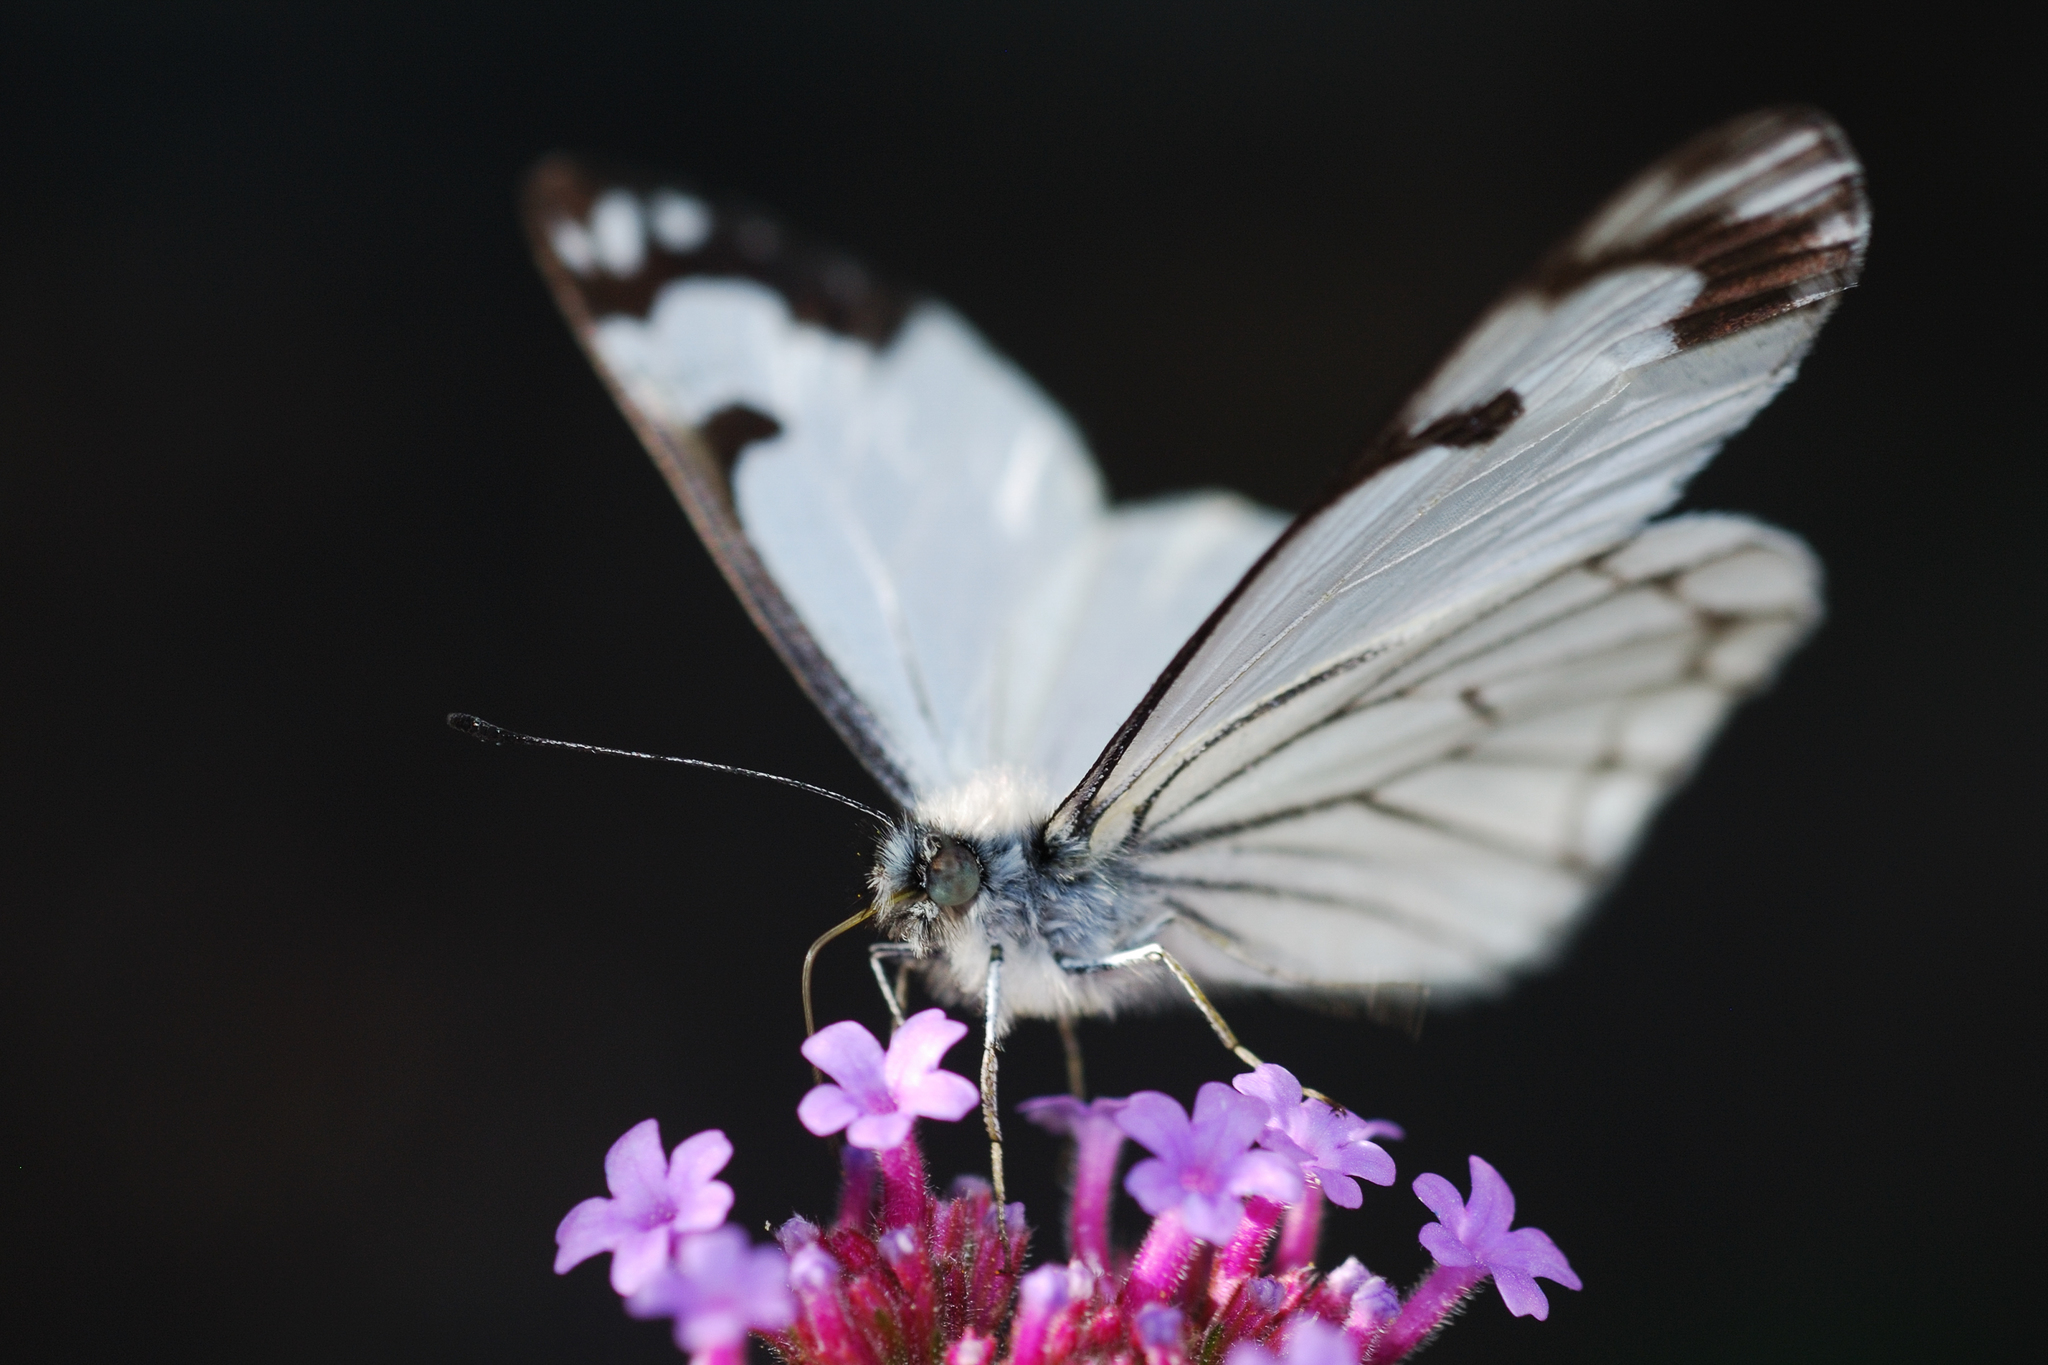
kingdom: Animalia
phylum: Arthropoda
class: Insecta
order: Lepidoptera
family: Pieridae
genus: Neophasia
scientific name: Neophasia menapia
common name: Pine white
